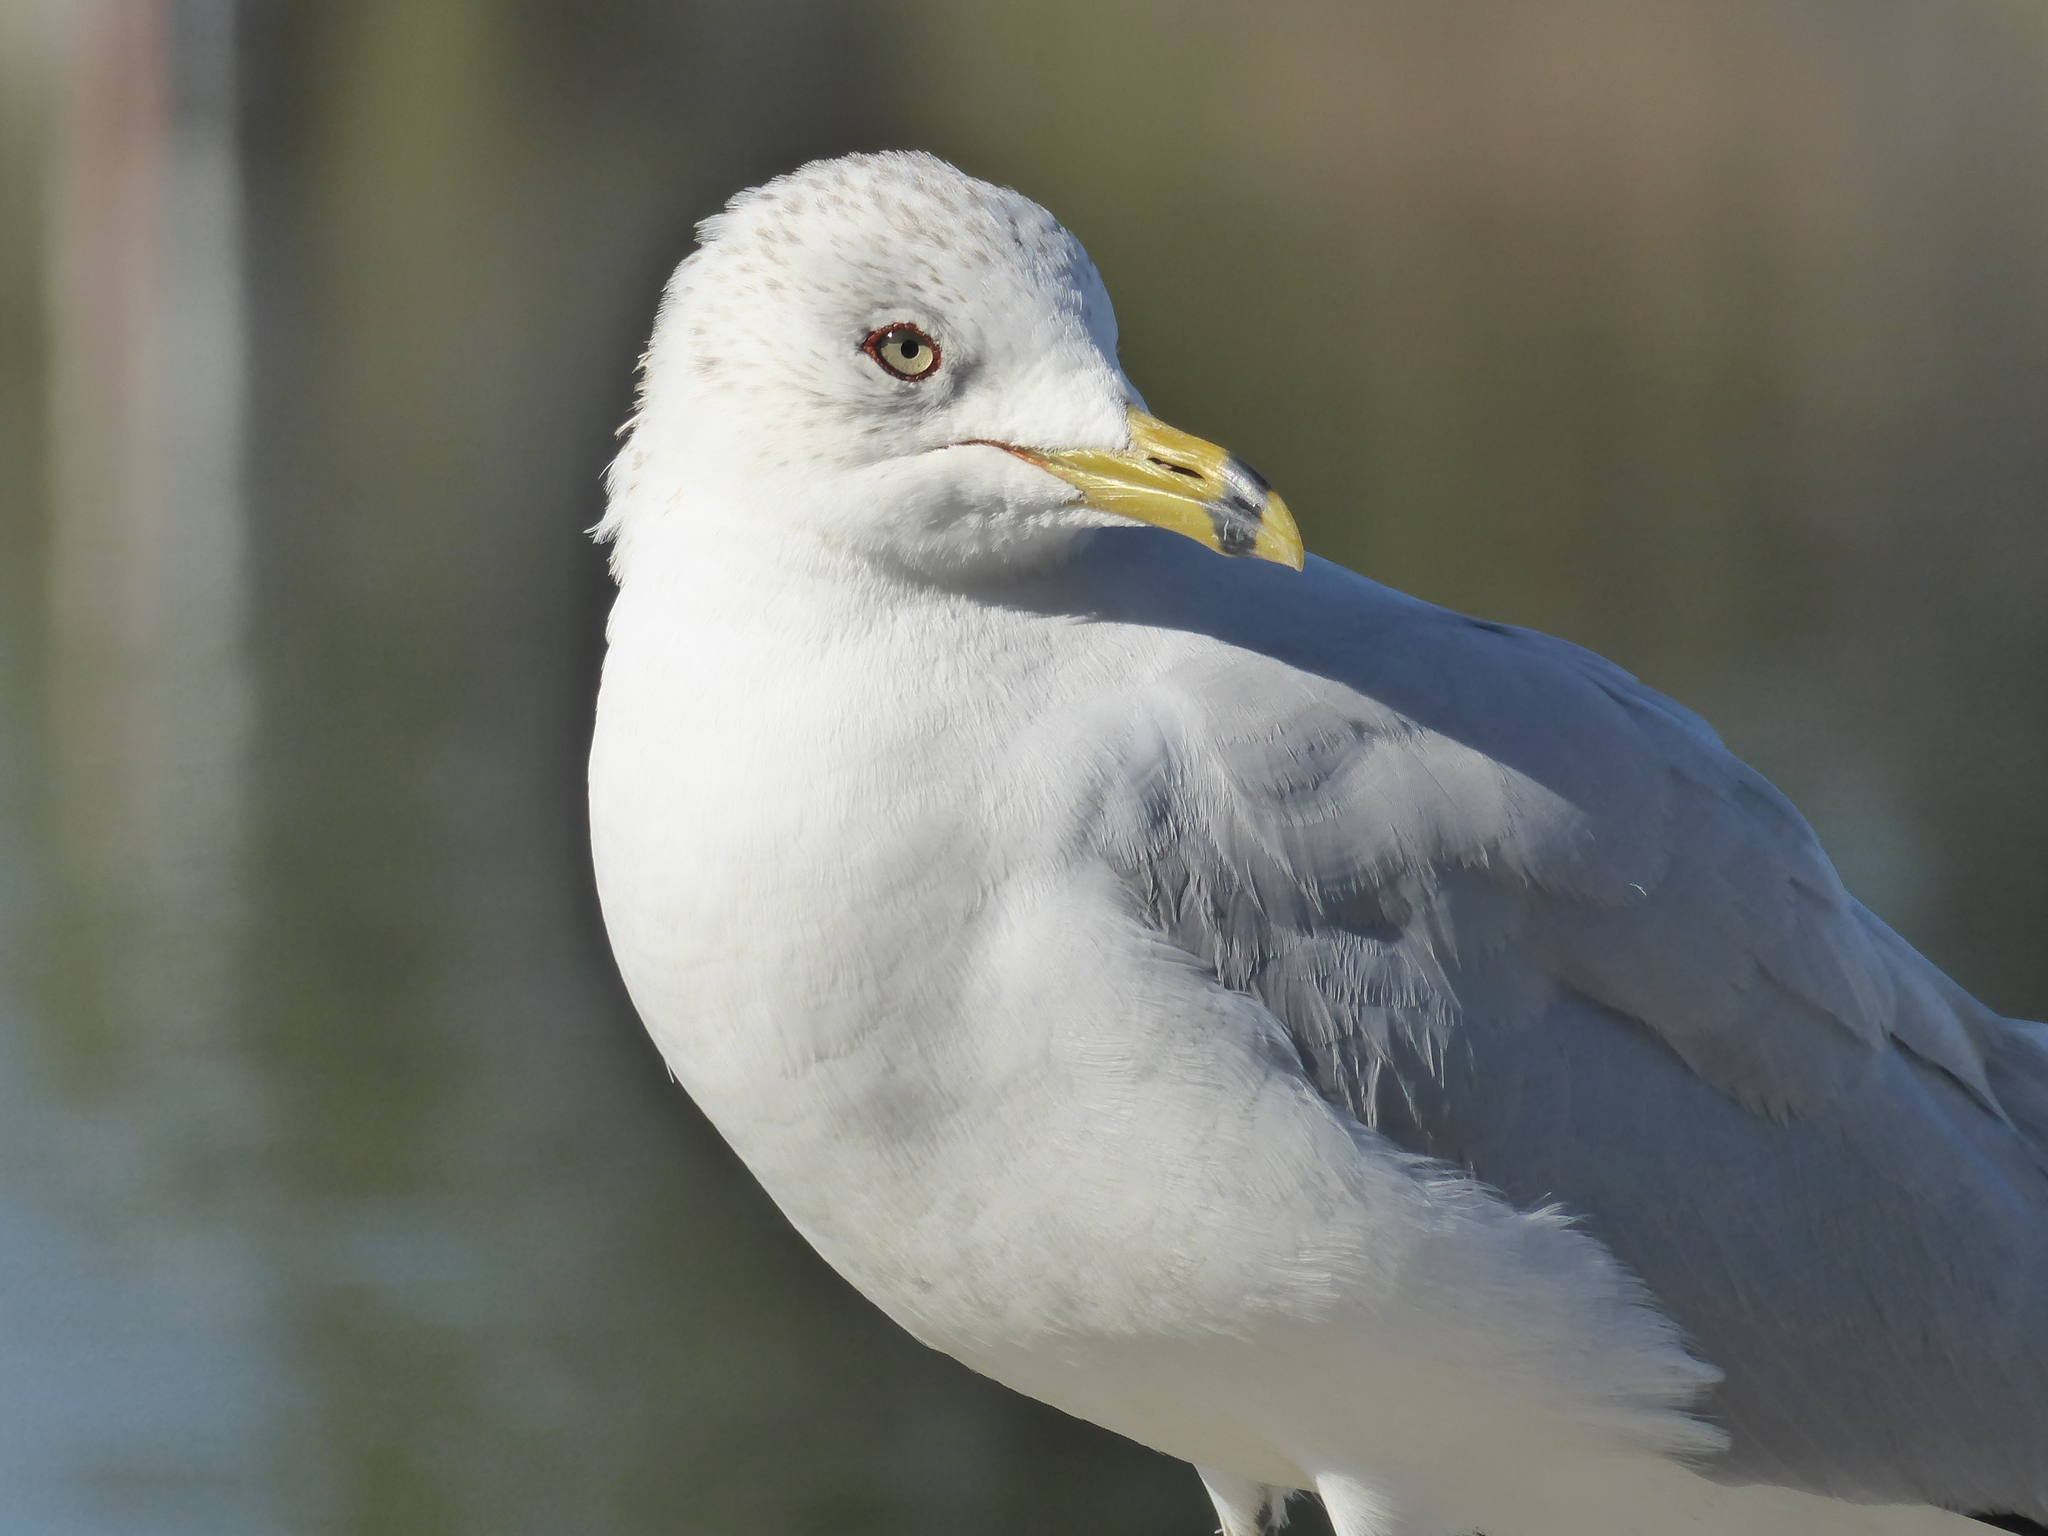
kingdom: Animalia
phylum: Chordata
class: Aves
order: Charadriiformes
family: Laridae
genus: Larus
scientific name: Larus delawarensis
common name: Ring-billed gull
